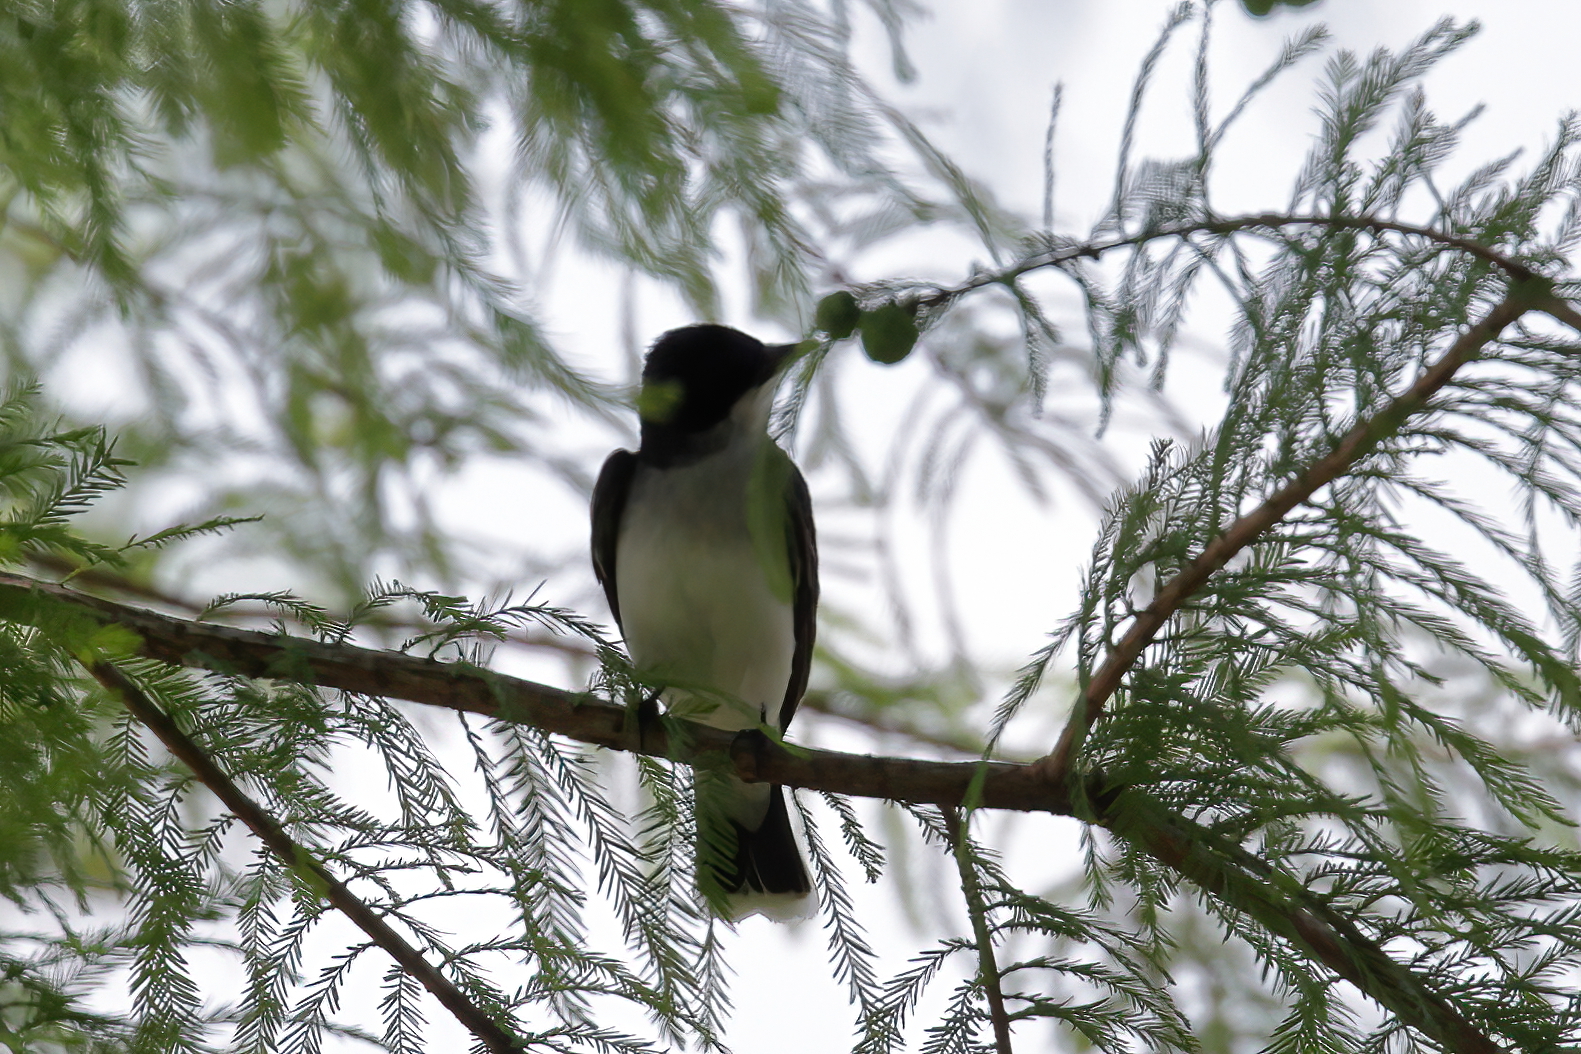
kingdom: Animalia
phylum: Chordata
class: Aves
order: Passeriformes
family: Tyrannidae
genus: Tyrannus
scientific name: Tyrannus tyrannus
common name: Eastern kingbird
